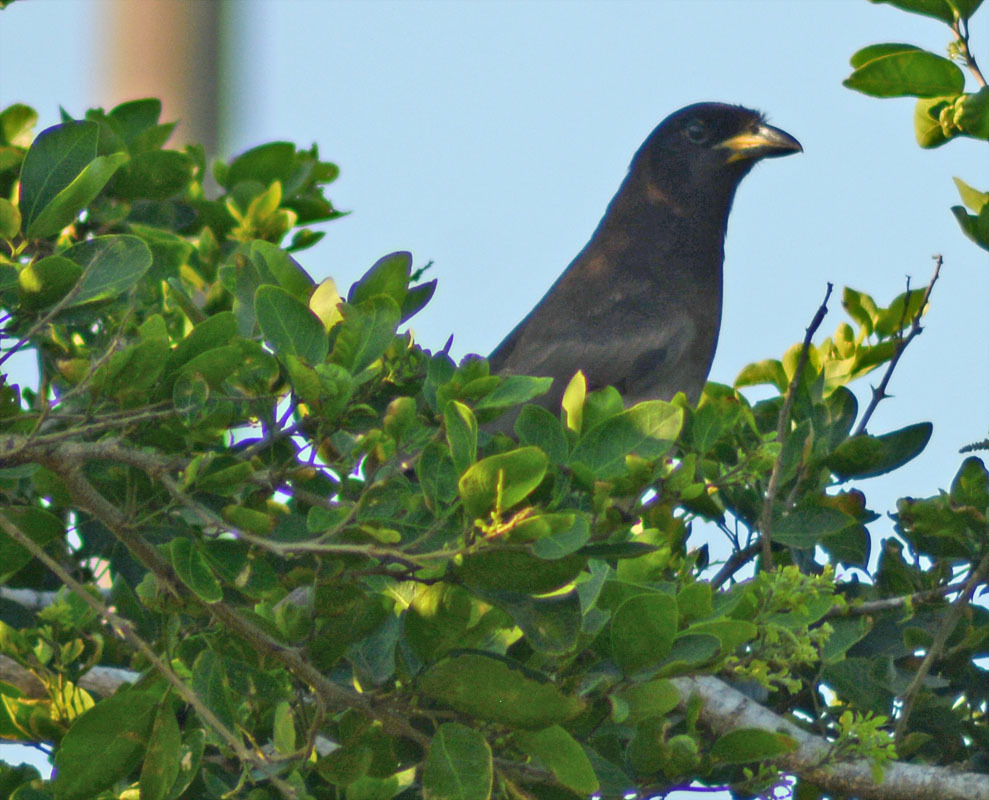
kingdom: Animalia
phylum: Chordata
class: Aves
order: Passeriformes
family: Corvidae
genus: Psilorhinus
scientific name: Psilorhinus morio
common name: Brown jay
